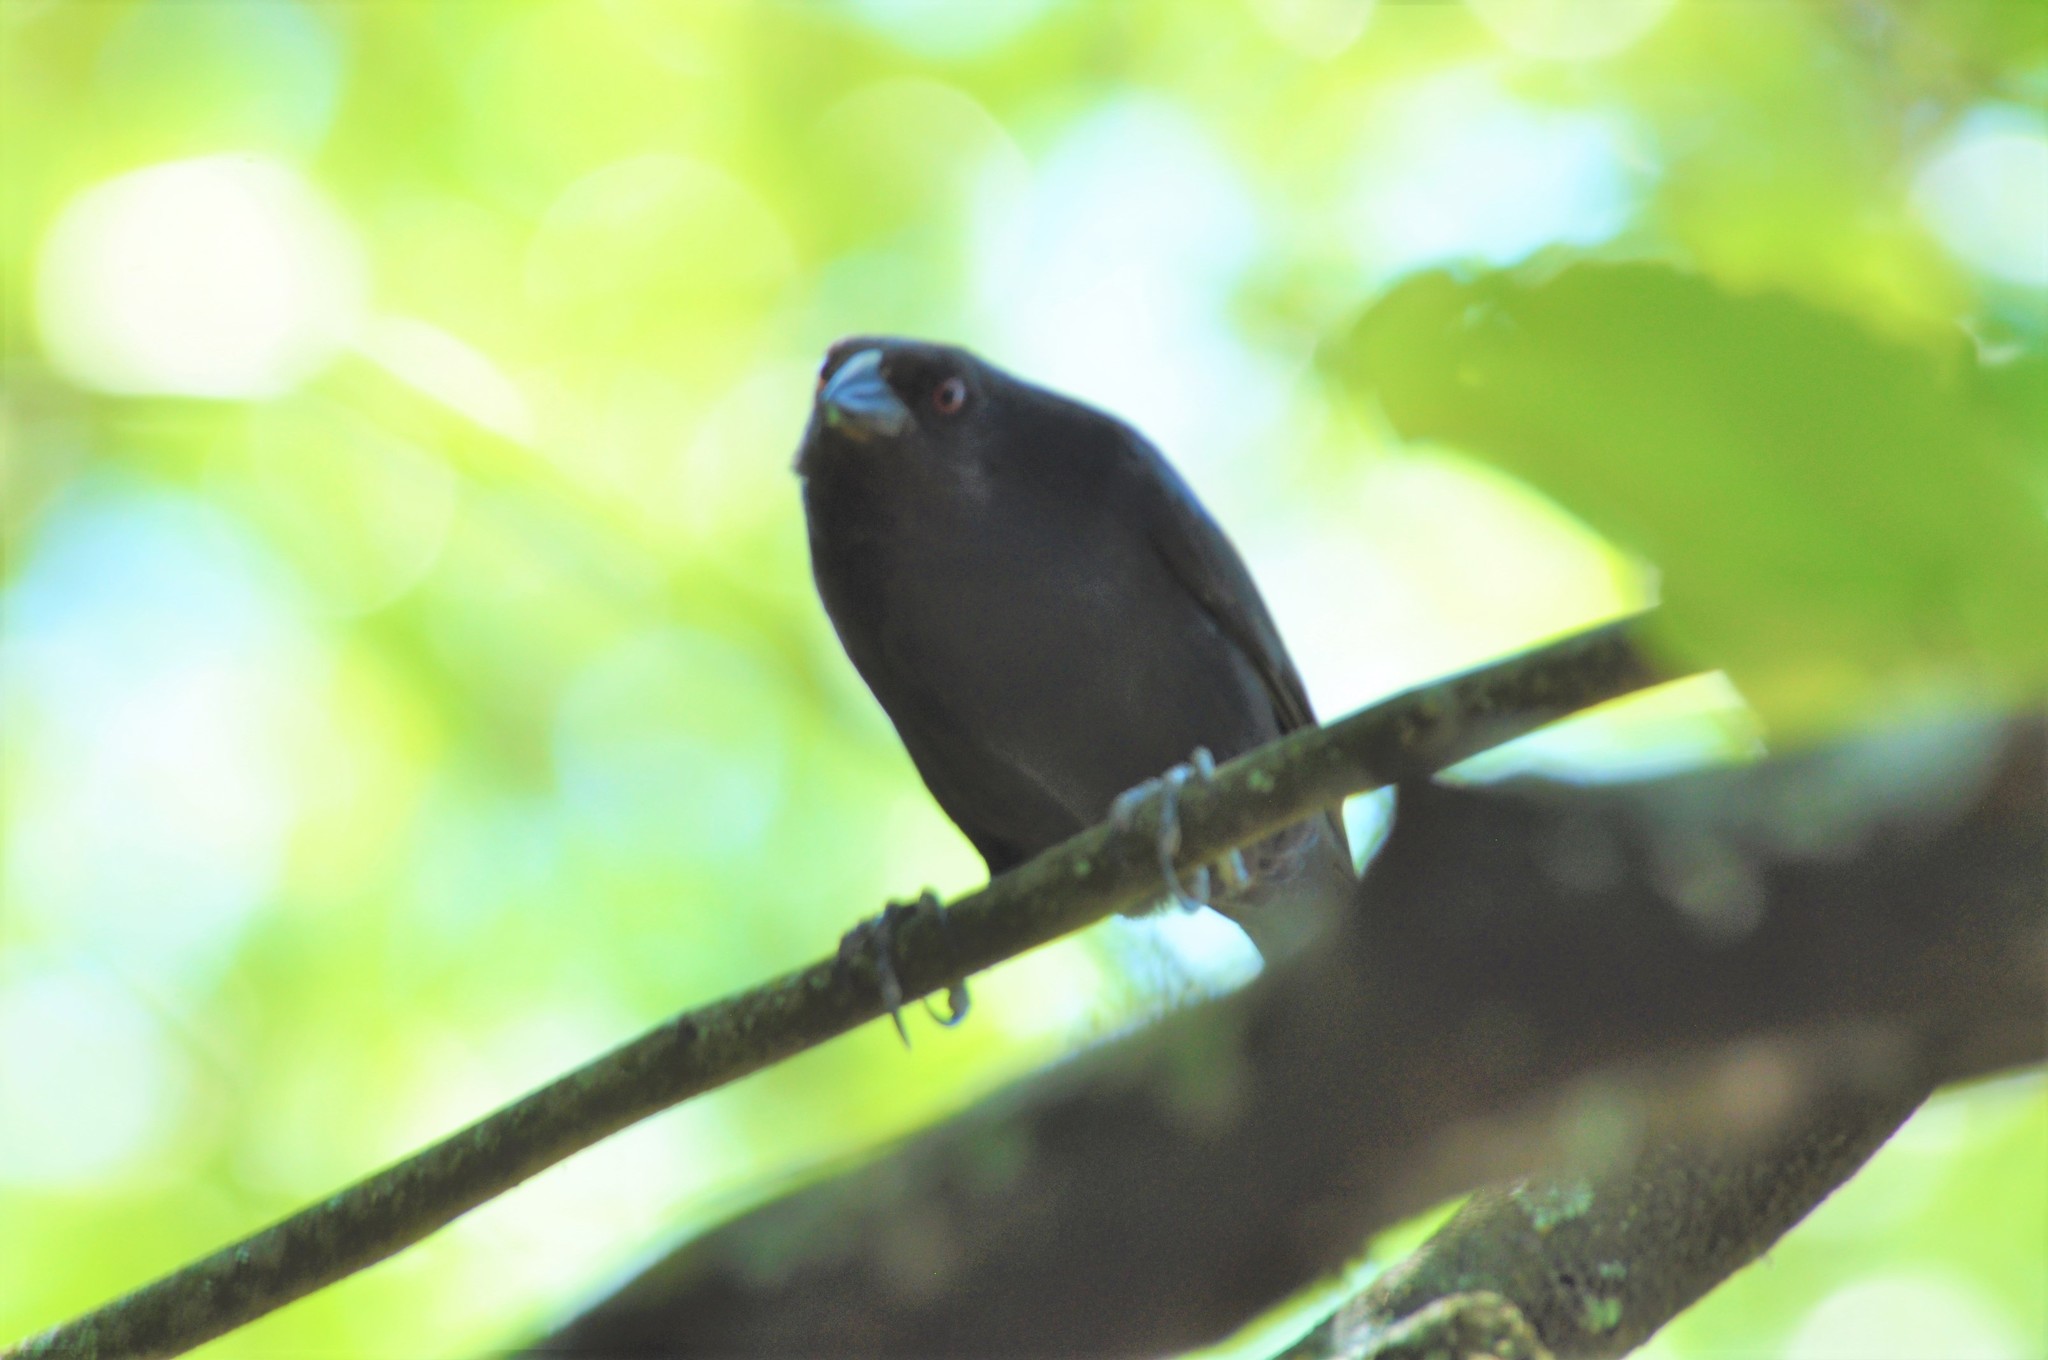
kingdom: Animalia
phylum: Chordata
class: Aves
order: Passeriformes
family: Icteridae
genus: Molothrus
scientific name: Molothrus aeneus
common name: Bronzed cowbird
